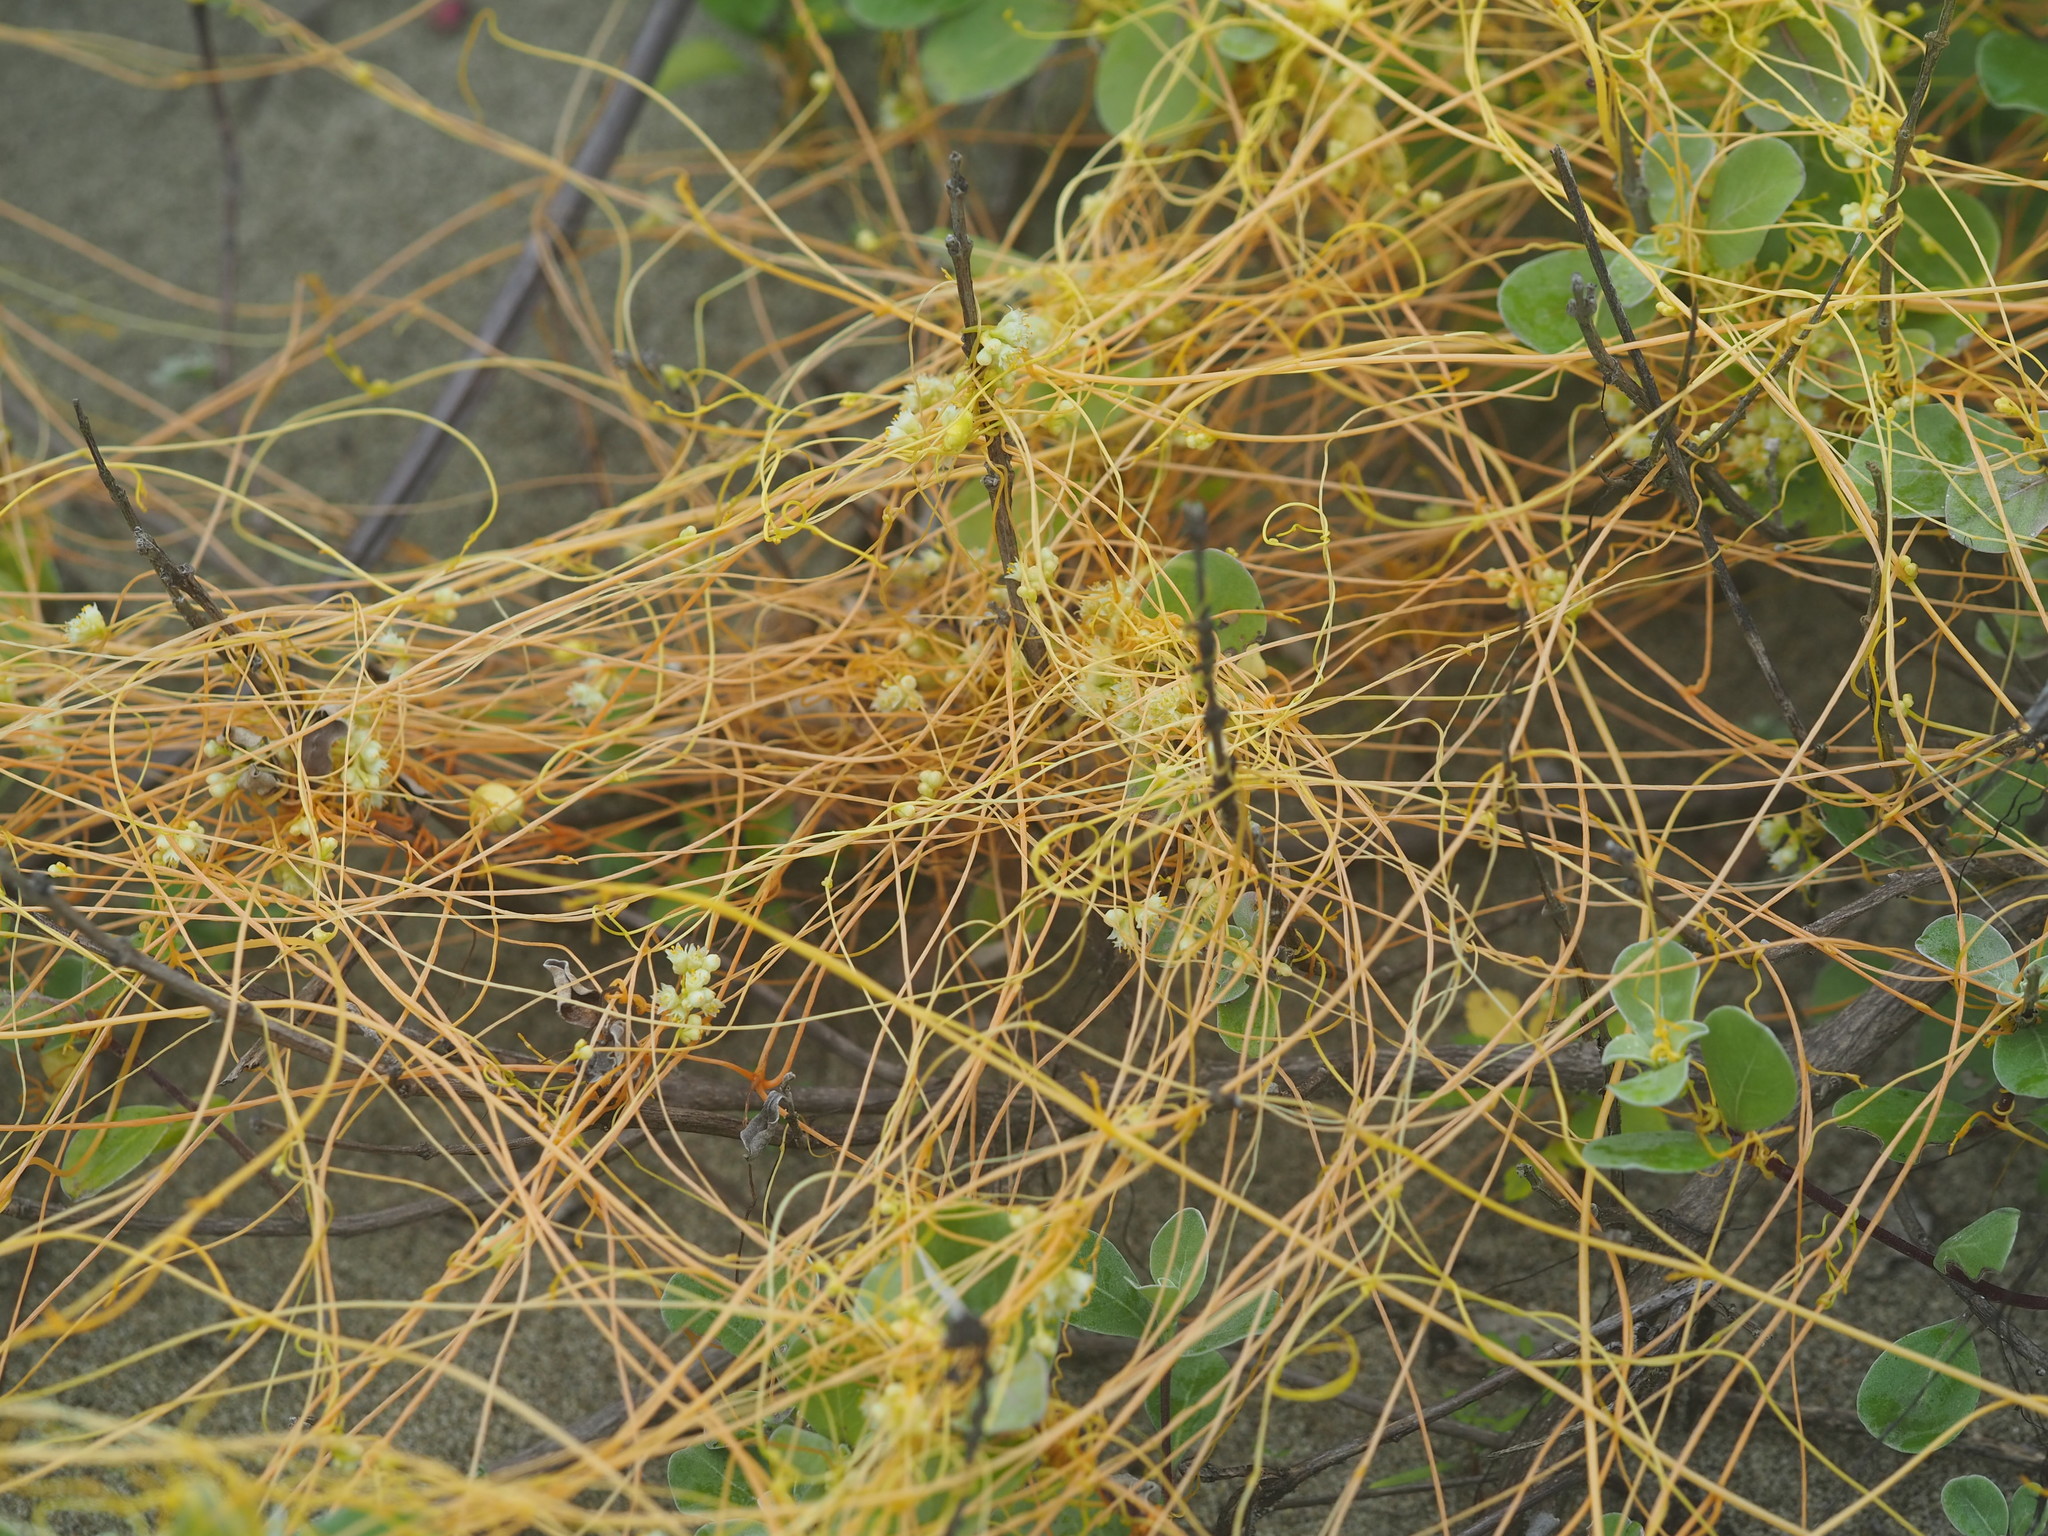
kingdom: Plantae
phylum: Tracheophyta
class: Magnoliopsida
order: Solanales
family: Convolvulaceae
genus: Cuscuta
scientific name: Cuscuta campestris
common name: Yellow dodder
